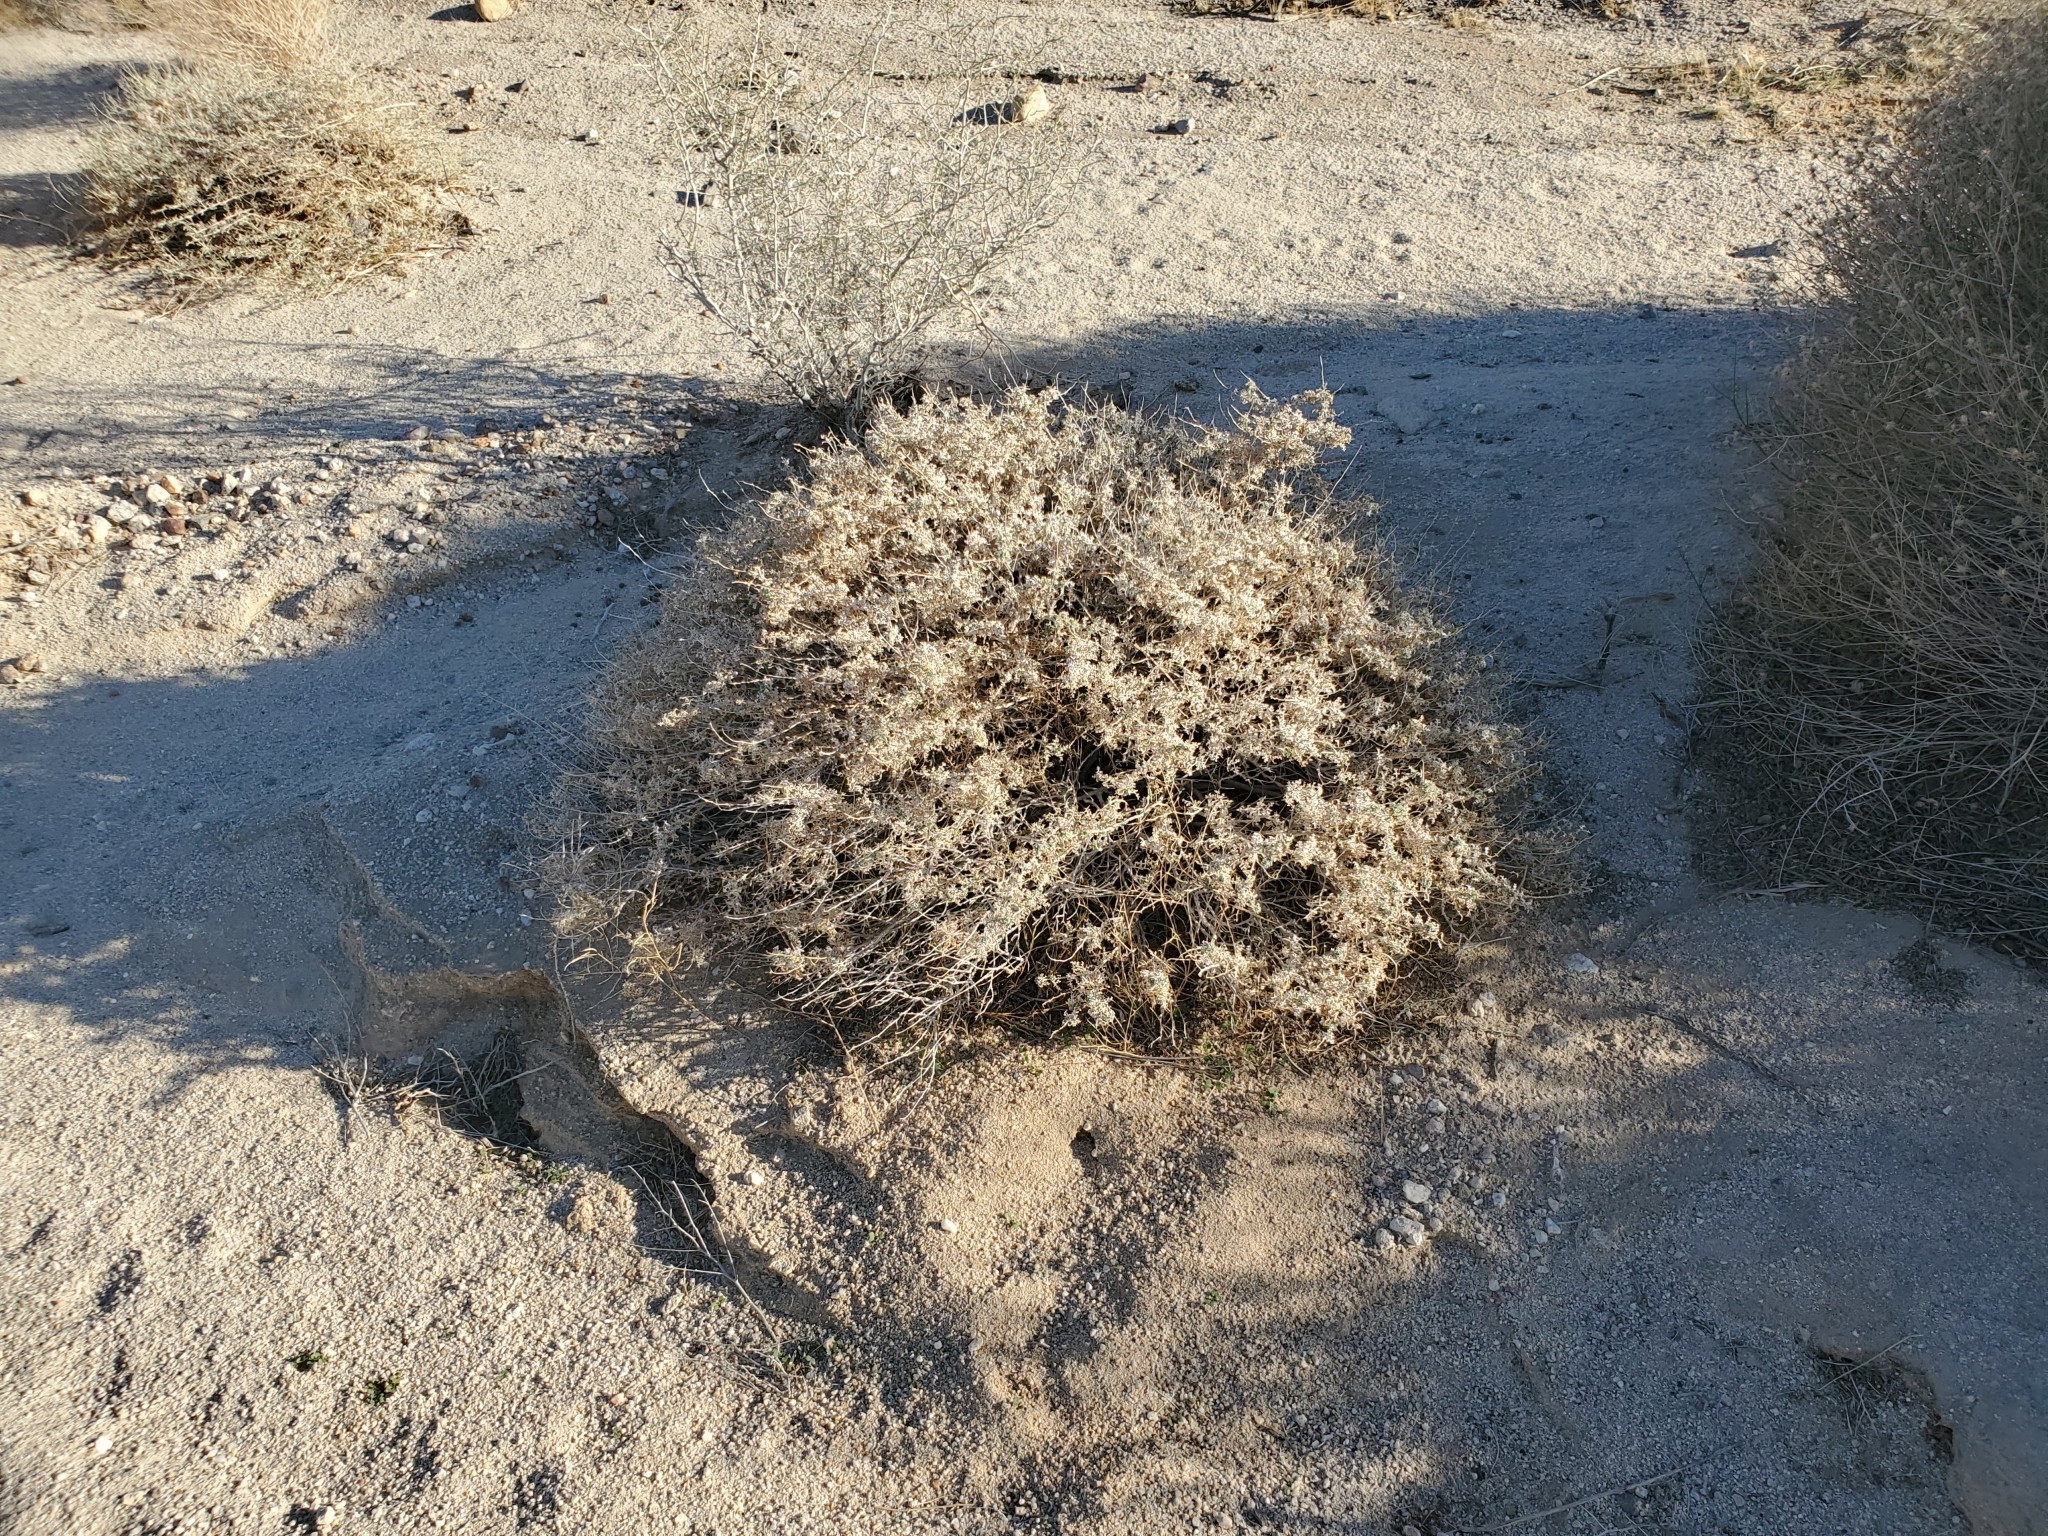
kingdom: Plantae
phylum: Tracheophyta
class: Magnoliopsida
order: Asterales
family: Asteraceae
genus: Ambrosia
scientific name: Ambrosia dumosa
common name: Bur-sage
